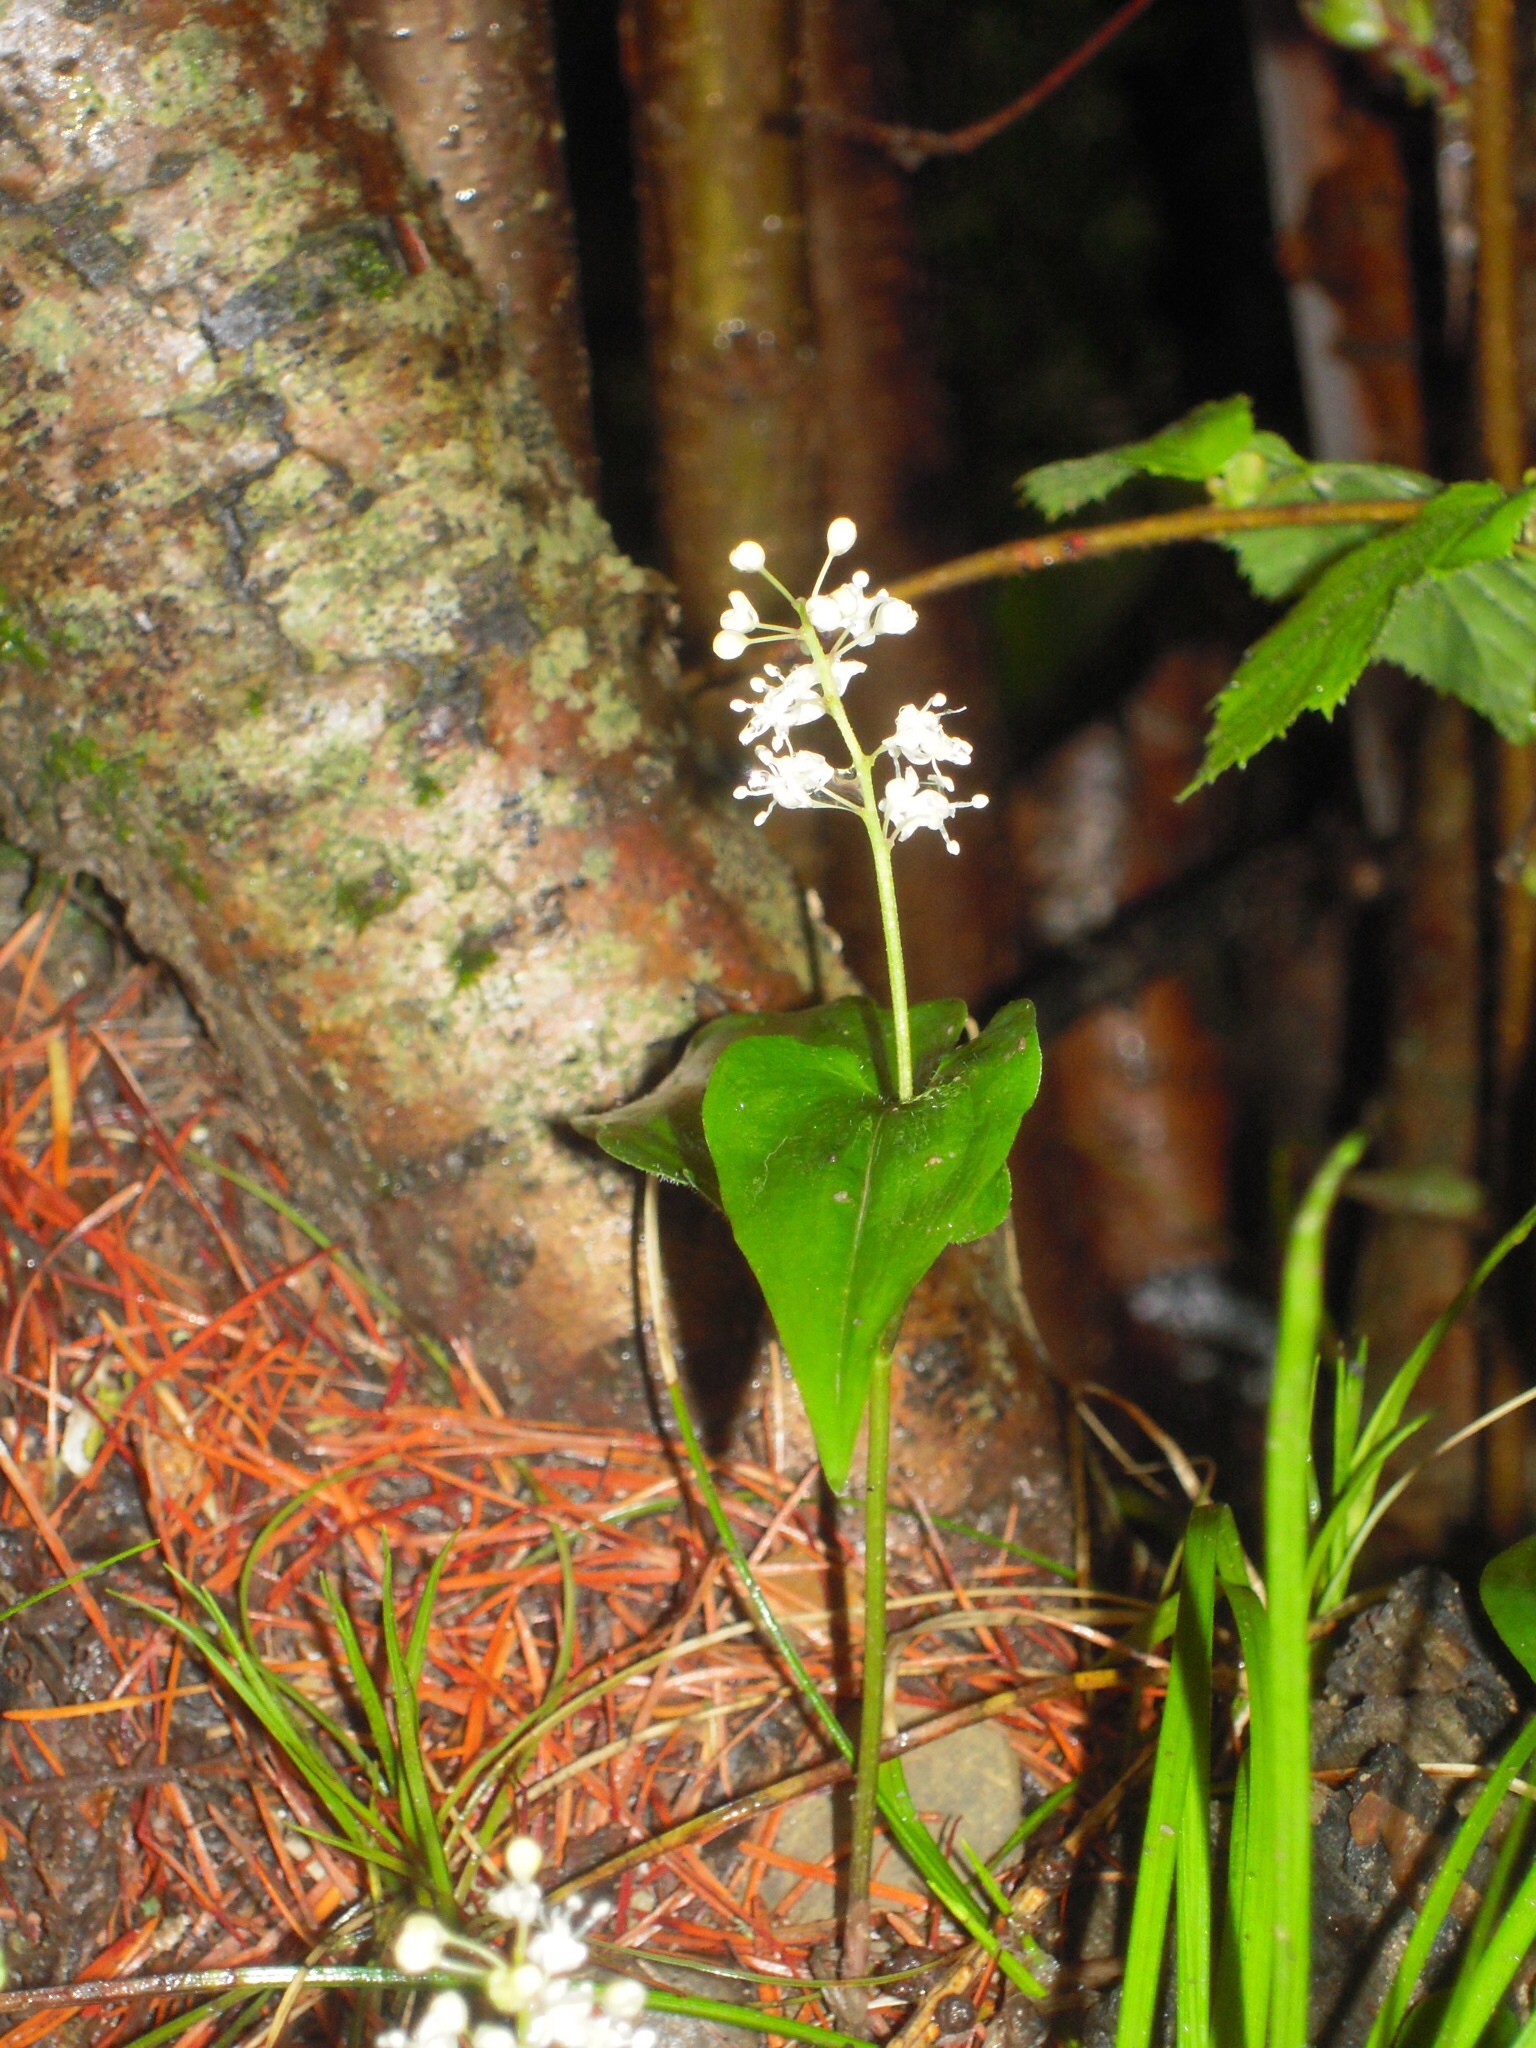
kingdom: Plantae
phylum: Tracheophyta
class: Liliopsida
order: Asparagales
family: Asparagaceae
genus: Maianthemum
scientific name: Maianthemum bifolium
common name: May lily
